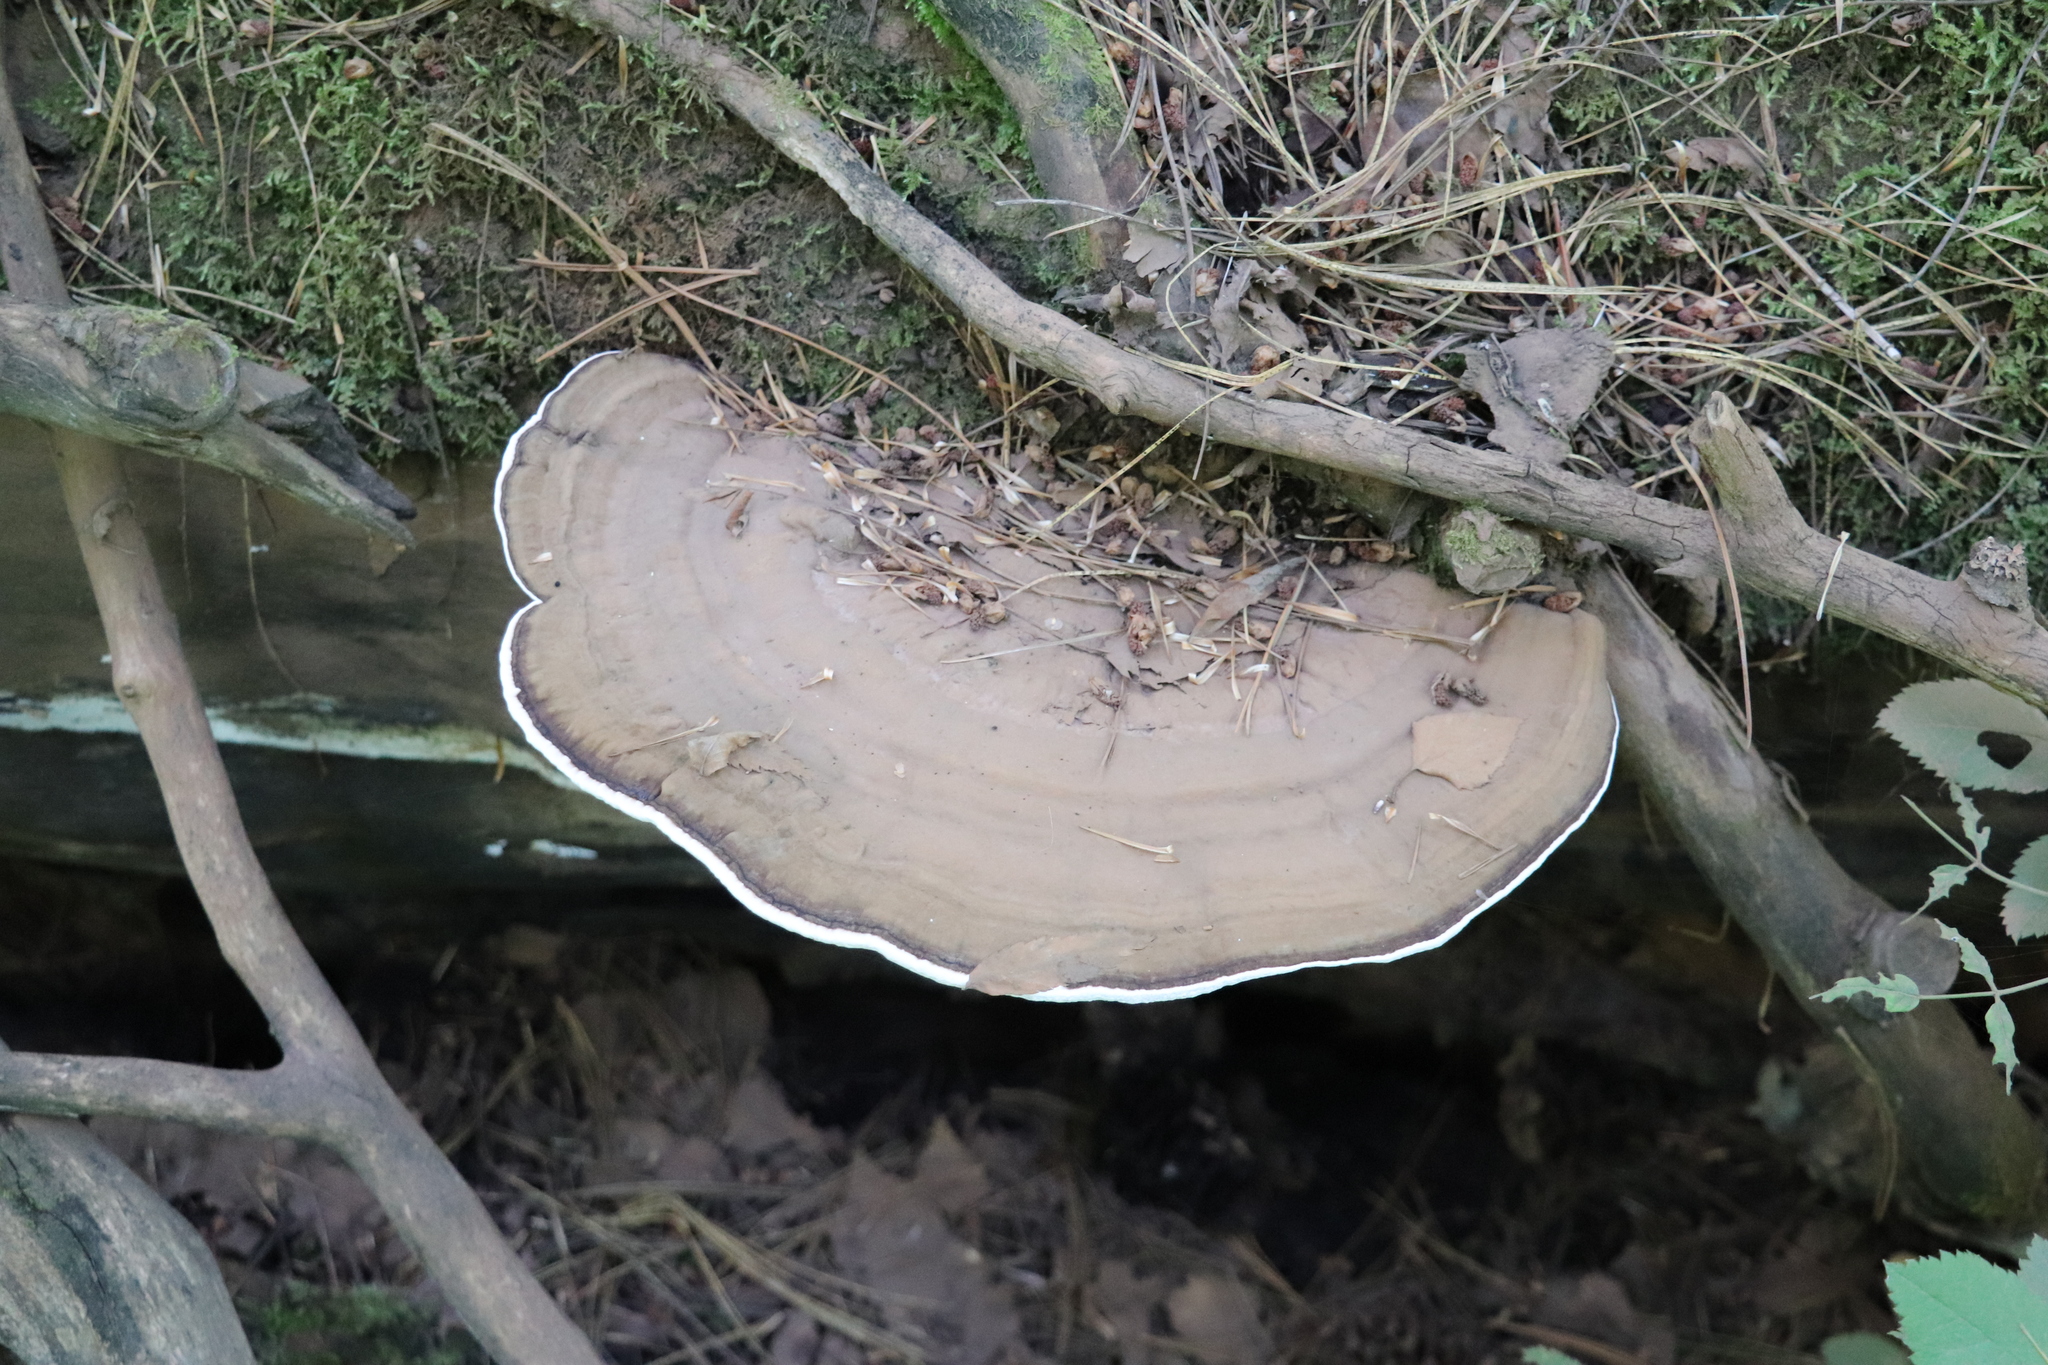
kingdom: Fungi
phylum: Basidiomycota
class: Agaricomycetes
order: Polyporales
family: Polyporaceae
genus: Ganoderma
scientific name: Ganoderma applanatum
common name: Artist's bracket
